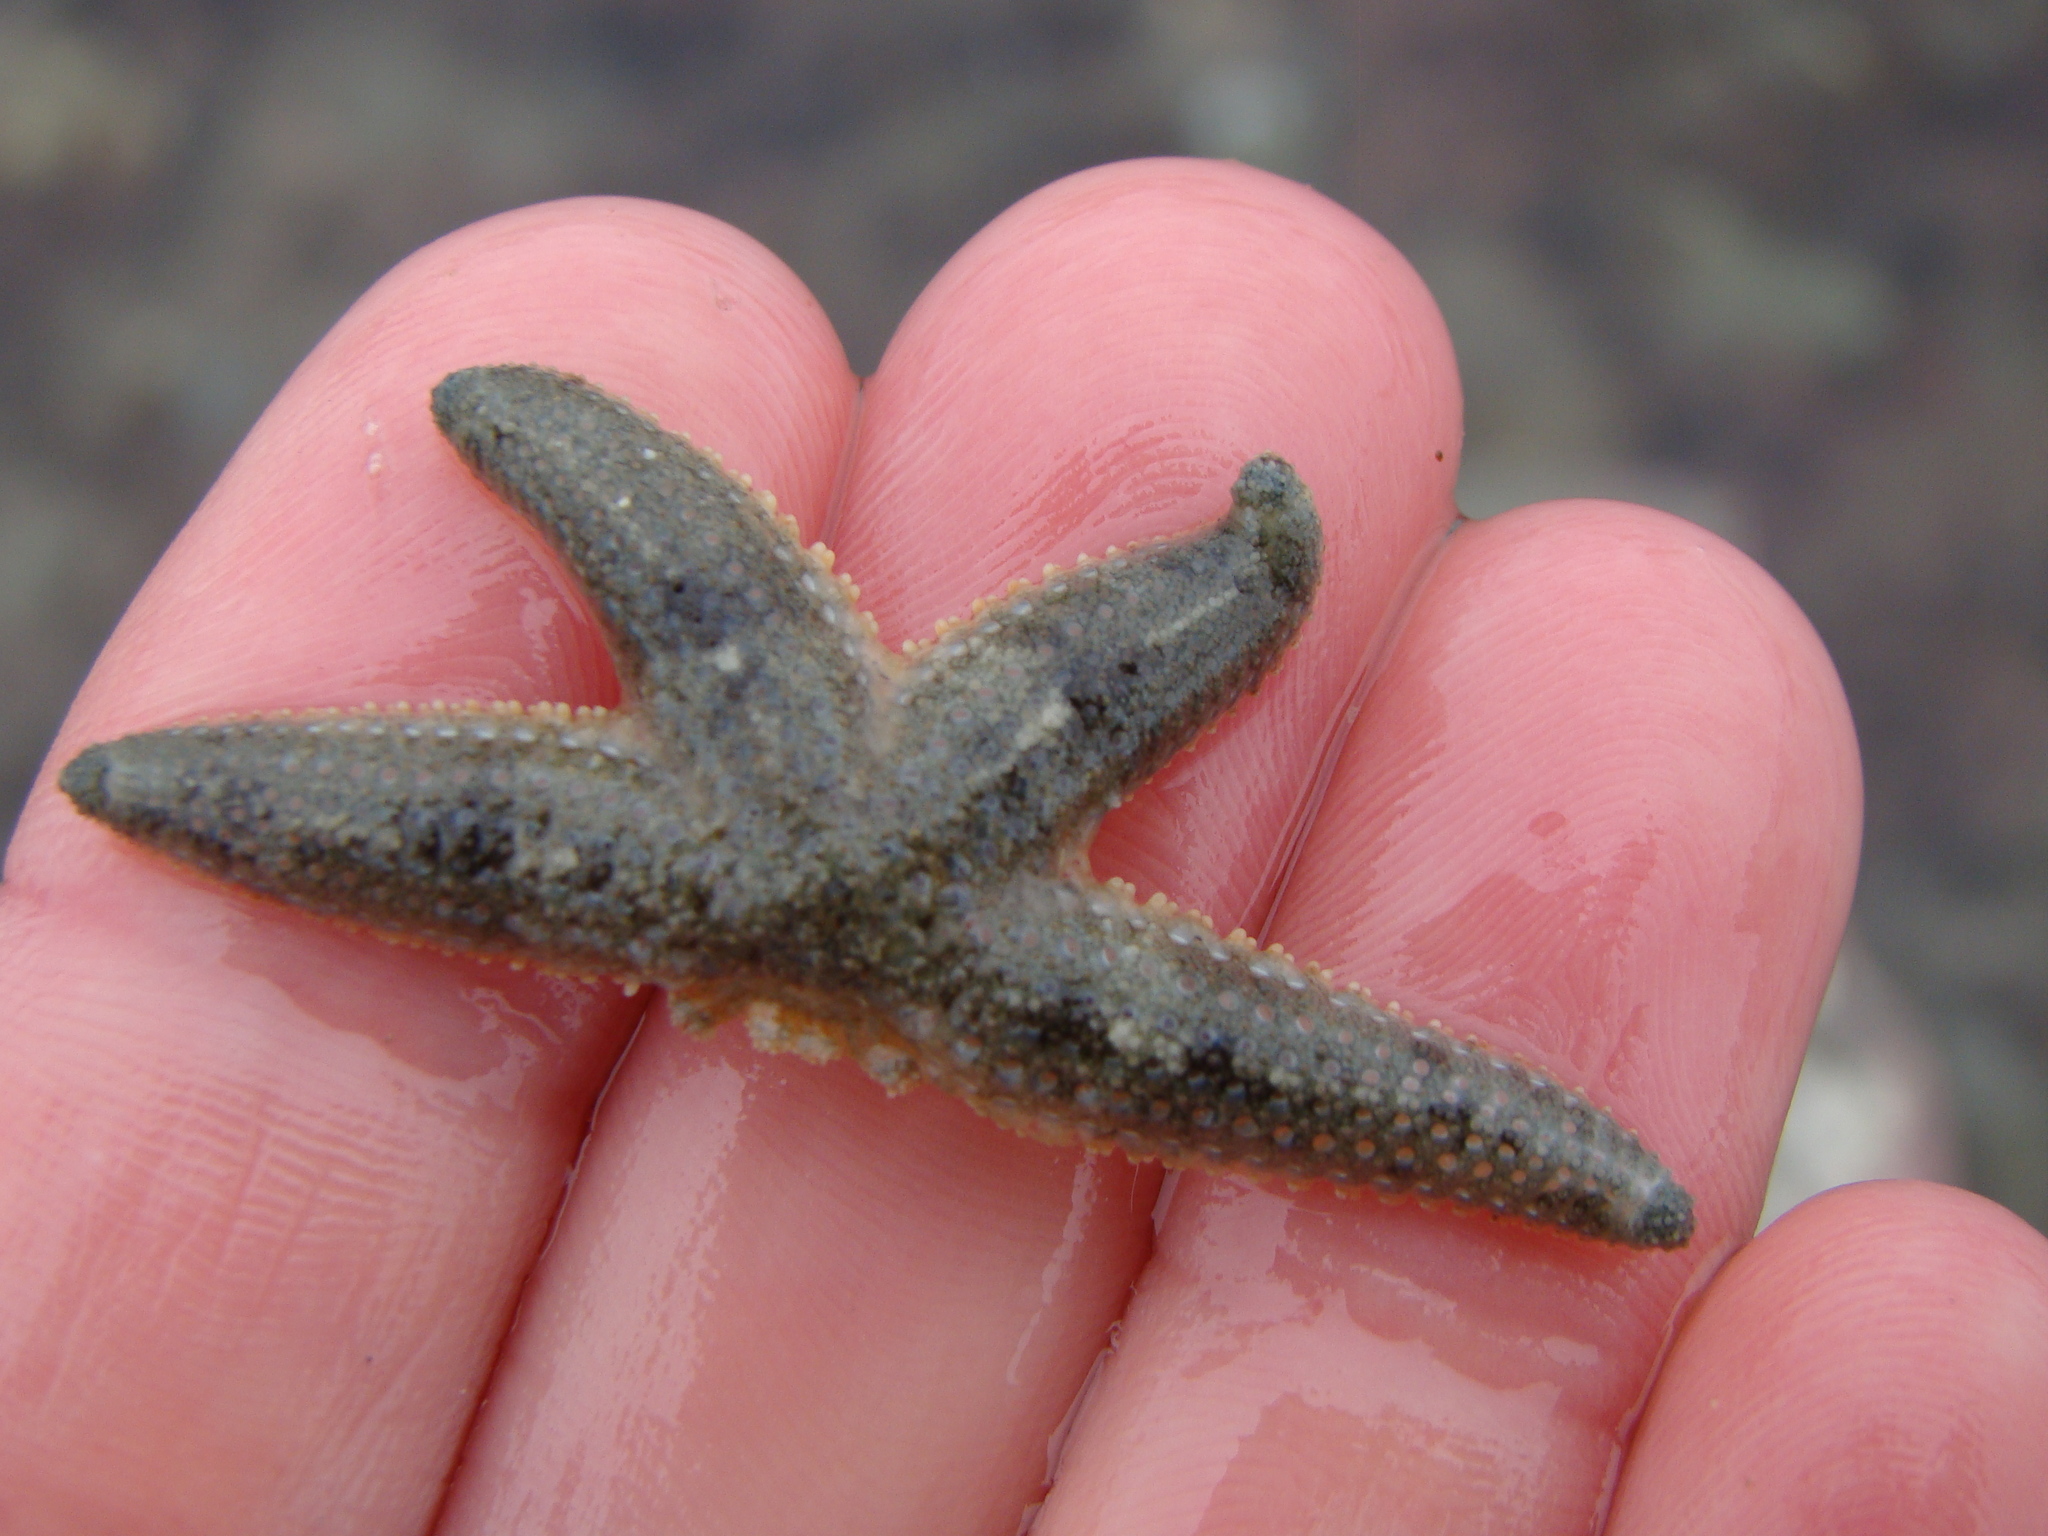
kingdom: Animalia
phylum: Echinodermata
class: Asteroidea
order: Forcipulatida
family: Stichasteridae
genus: Allostichaster
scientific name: Allostichaster polyplax
